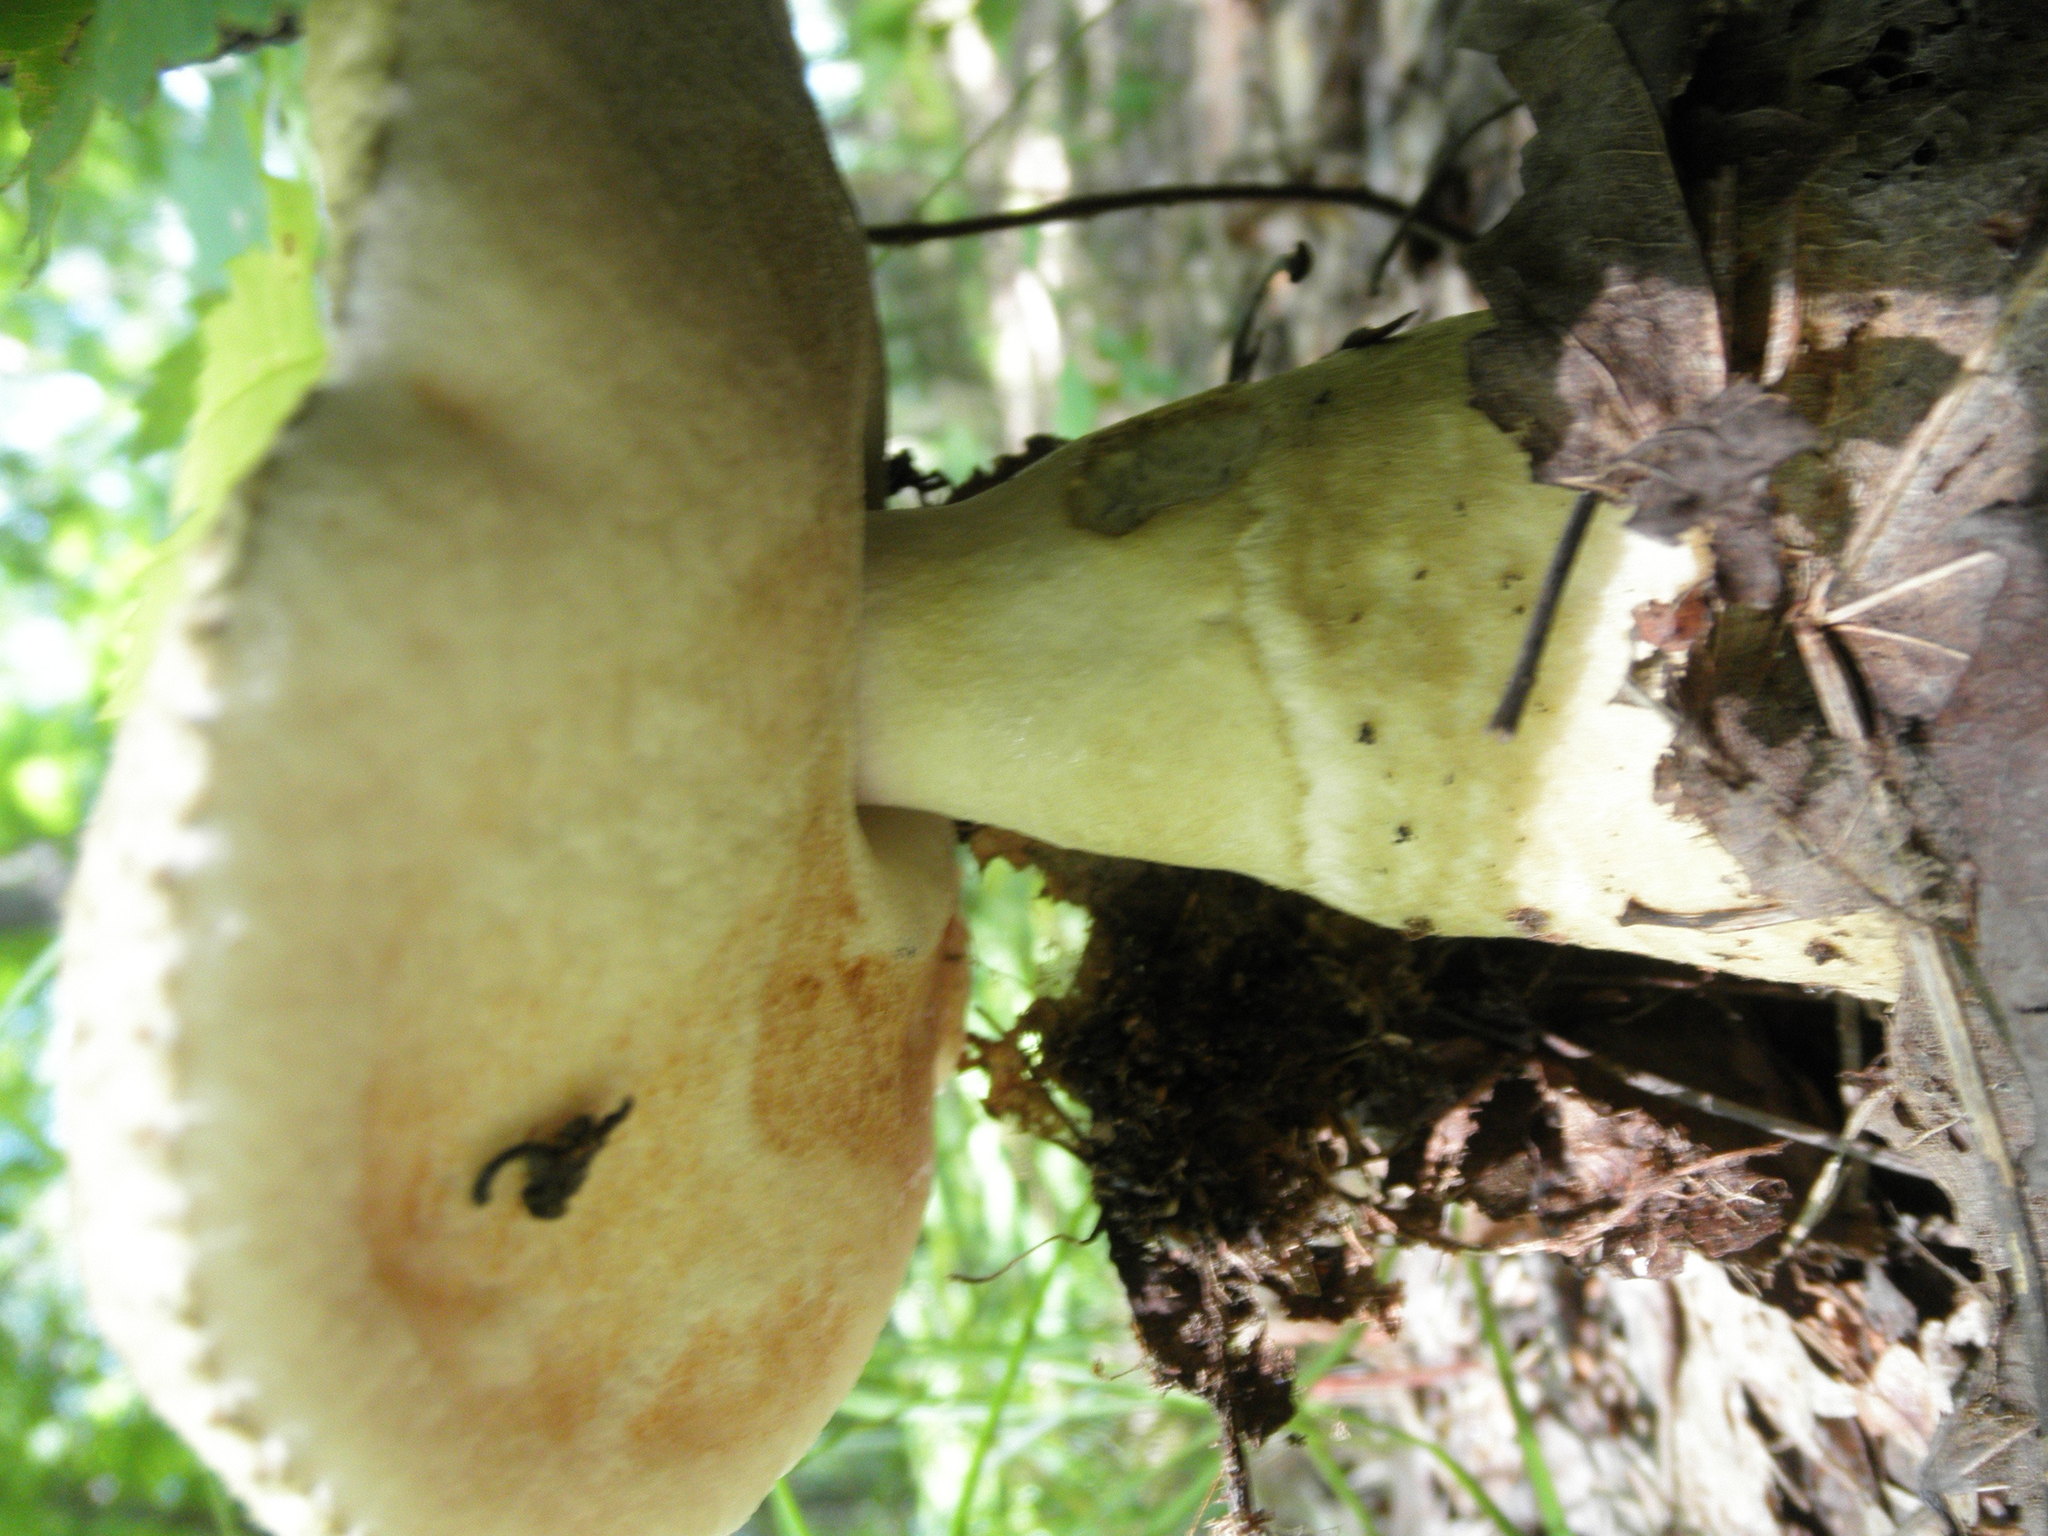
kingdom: Fungi
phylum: Basidiomycota
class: Agaricomycetes
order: Boletales
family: Gyroporaceae
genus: Gyroporus
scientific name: Gyroporus cyanescens
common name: Cornflower bolete
